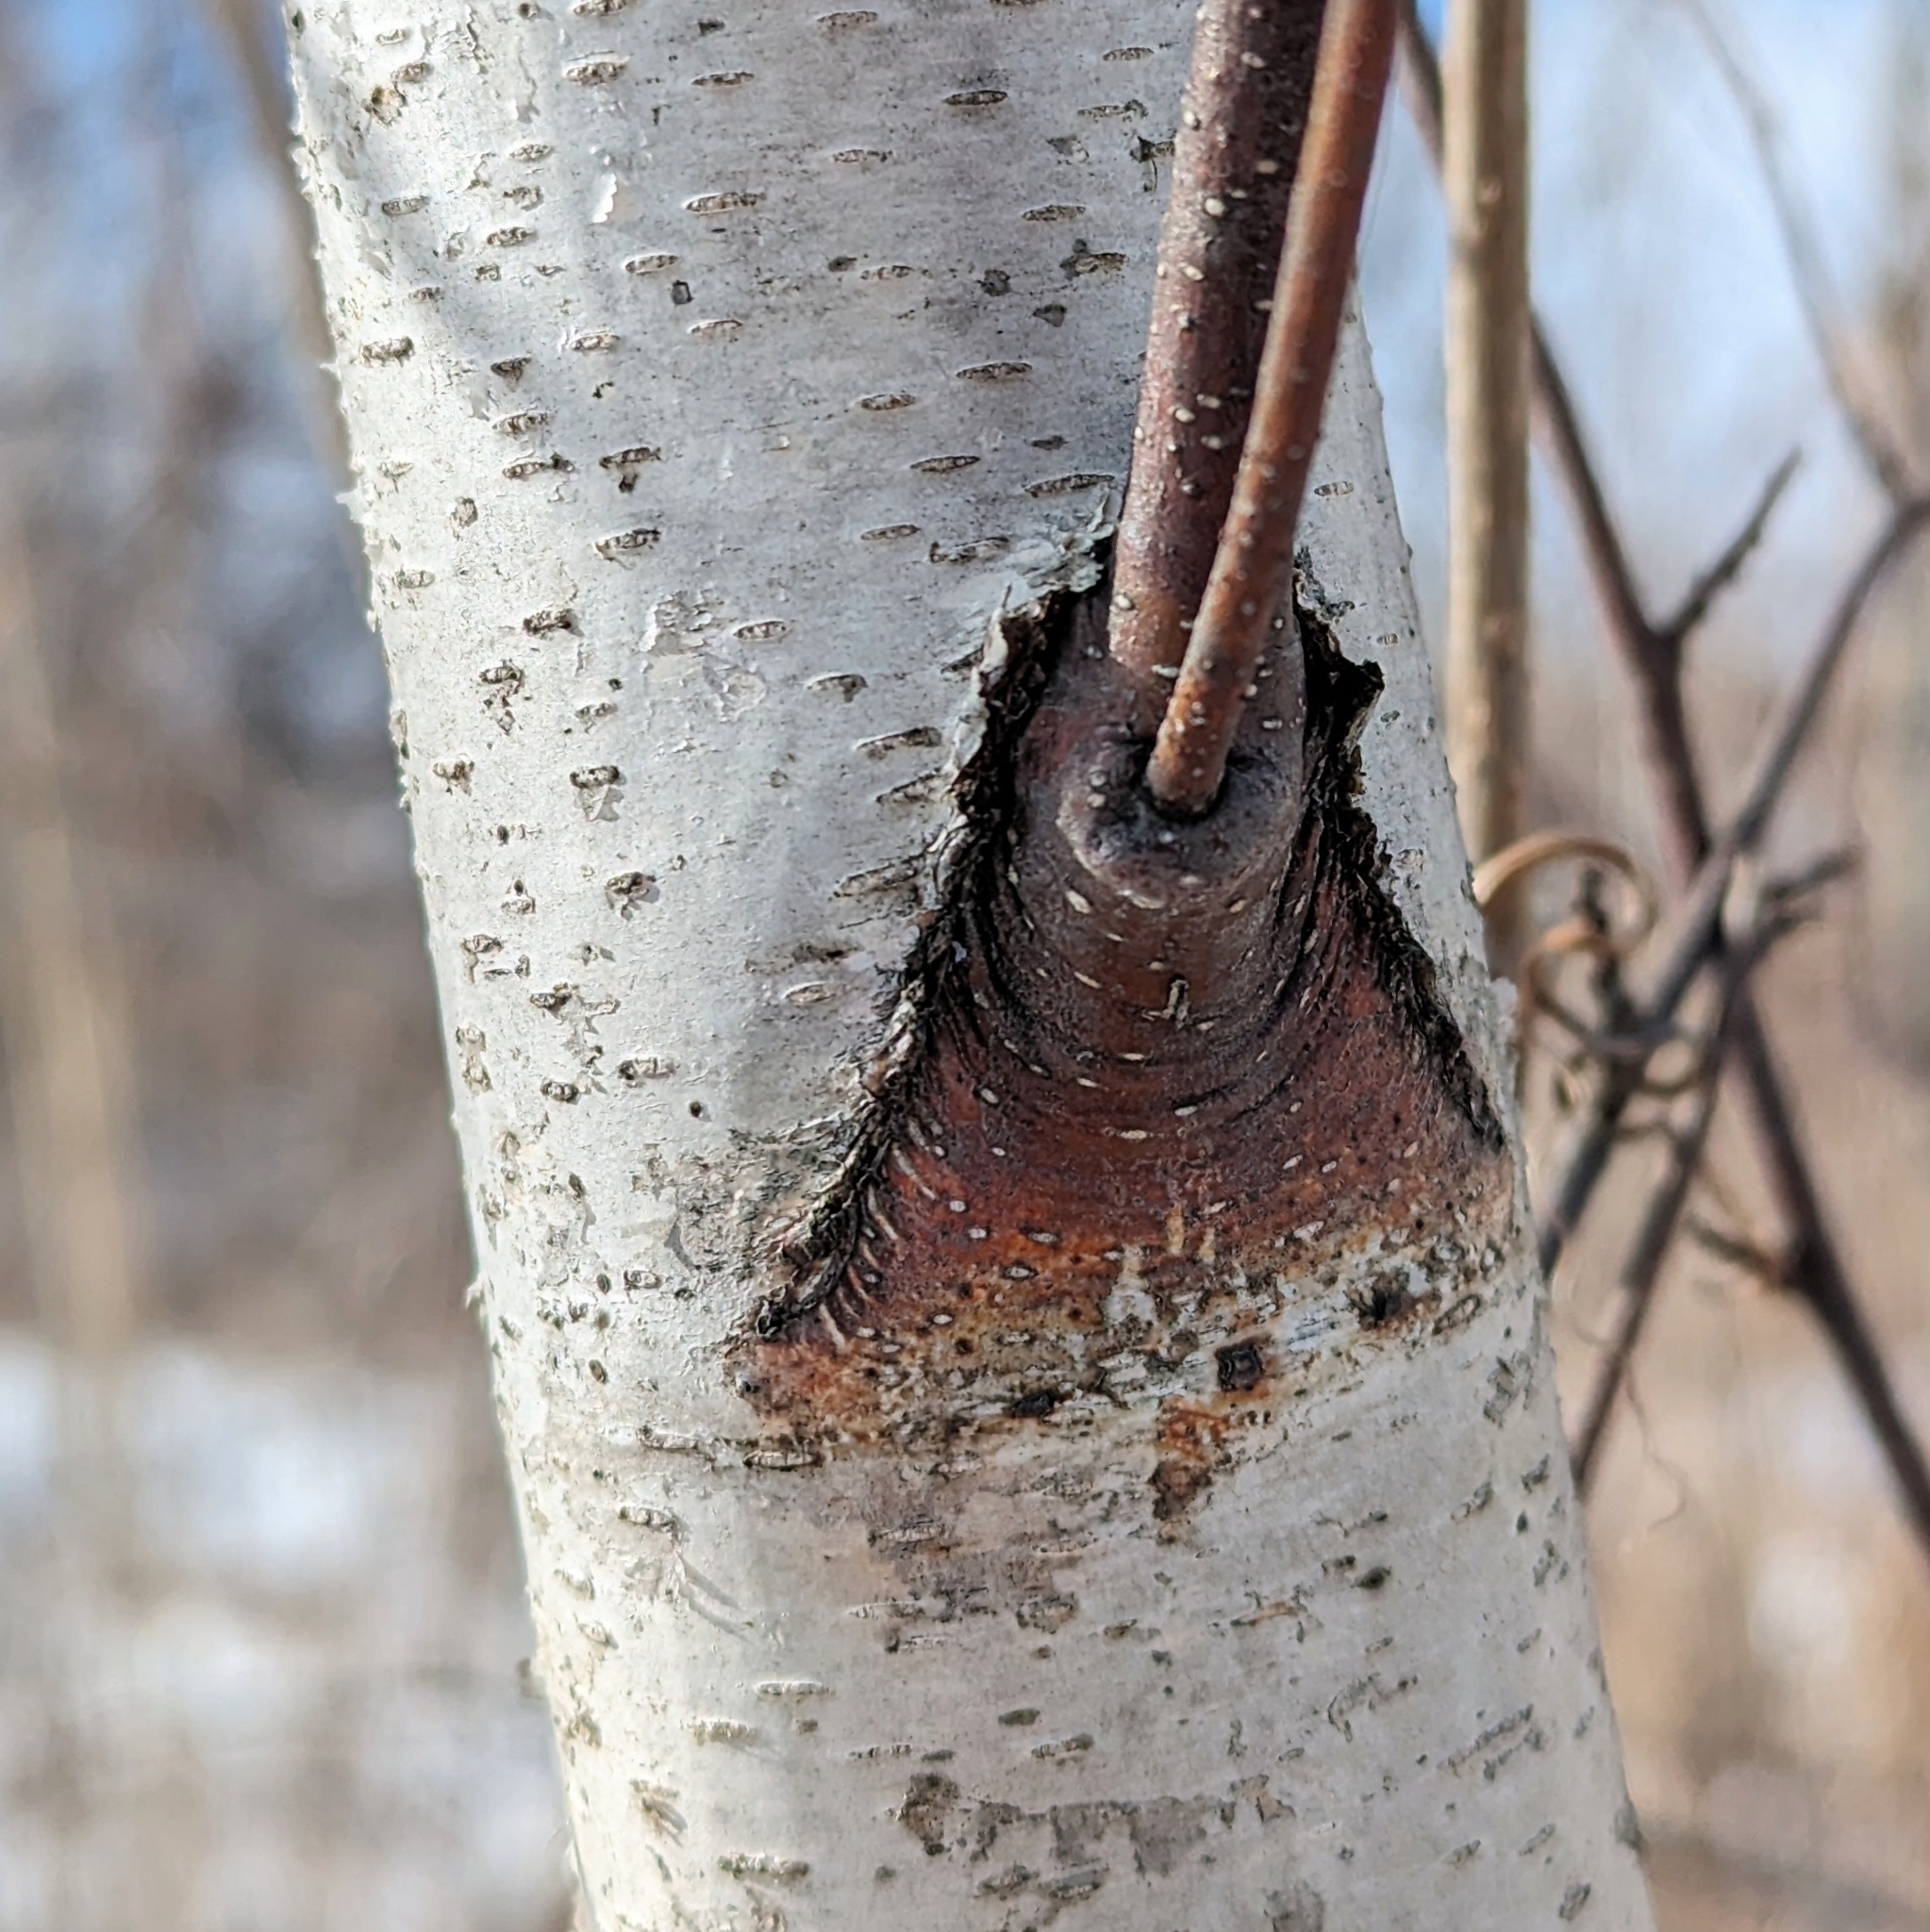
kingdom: Plantae
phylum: Tracheophyta
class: Magnoliopsida
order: Fagales
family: Betulaceae
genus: Betula
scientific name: Betula populifolia
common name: Fire birch
